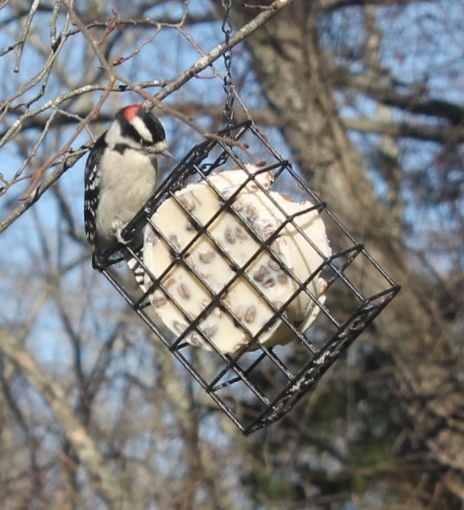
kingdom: Animalia
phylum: Chordata
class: Aves
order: Piciformes
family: Picidae
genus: Dryobates
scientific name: Dryobates pubescens
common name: Downy woodpecker
